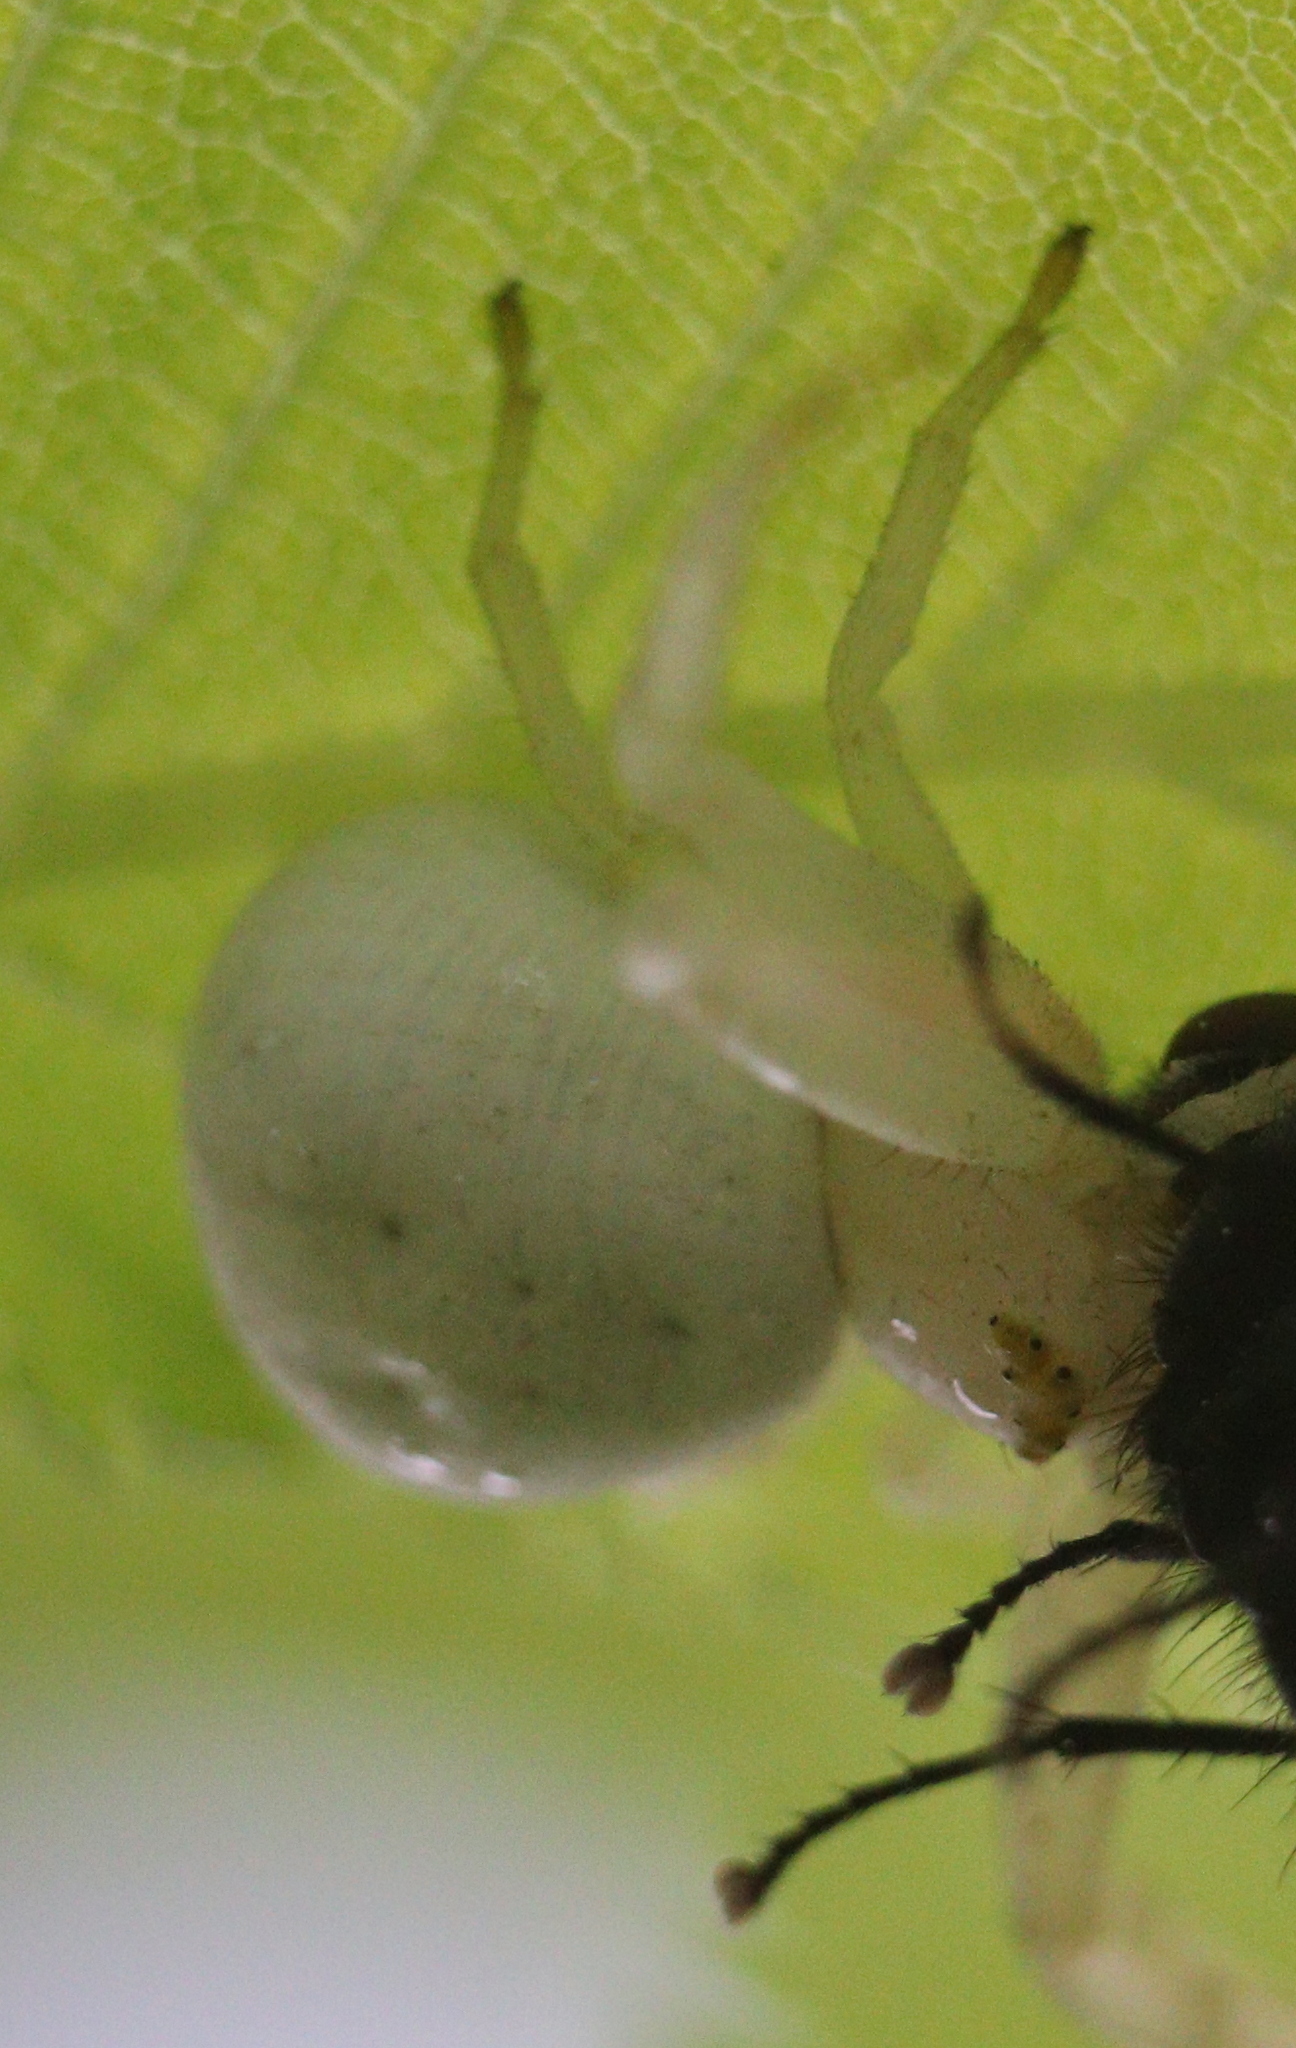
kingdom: Animalia
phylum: Arthropoda
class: Arachnida
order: Araneae
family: Thomisidae
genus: Misumena
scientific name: Misumena vatia
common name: Goldenrod crab spider
